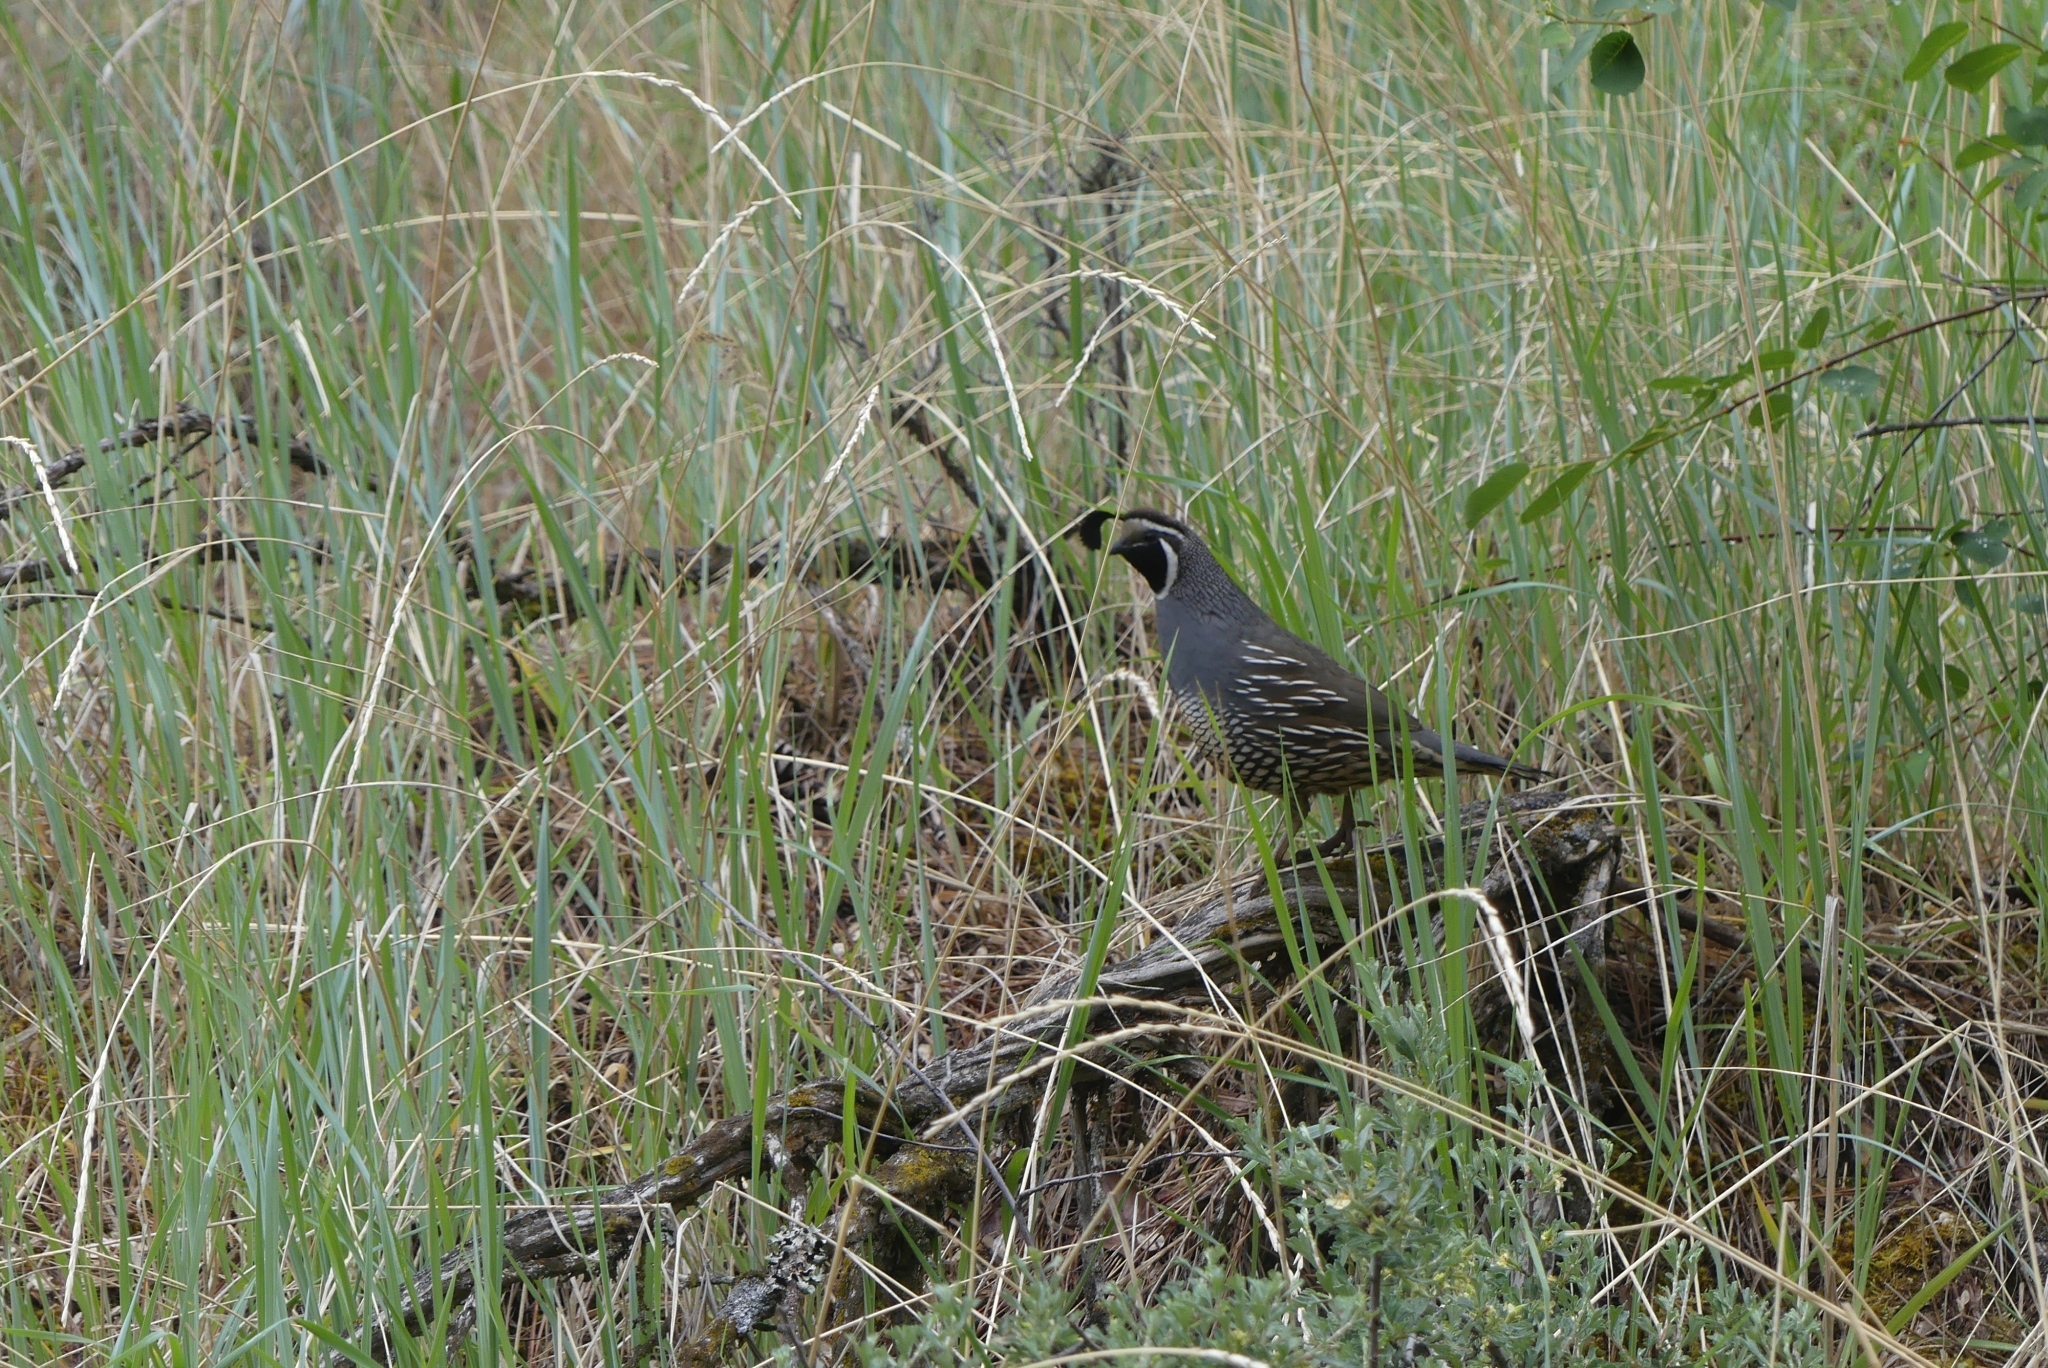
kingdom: Animalia
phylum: Chordata
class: Aves
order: Galliformes
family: Odontophoridae
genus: Callipepla
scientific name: Callipepla californica
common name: California quail
